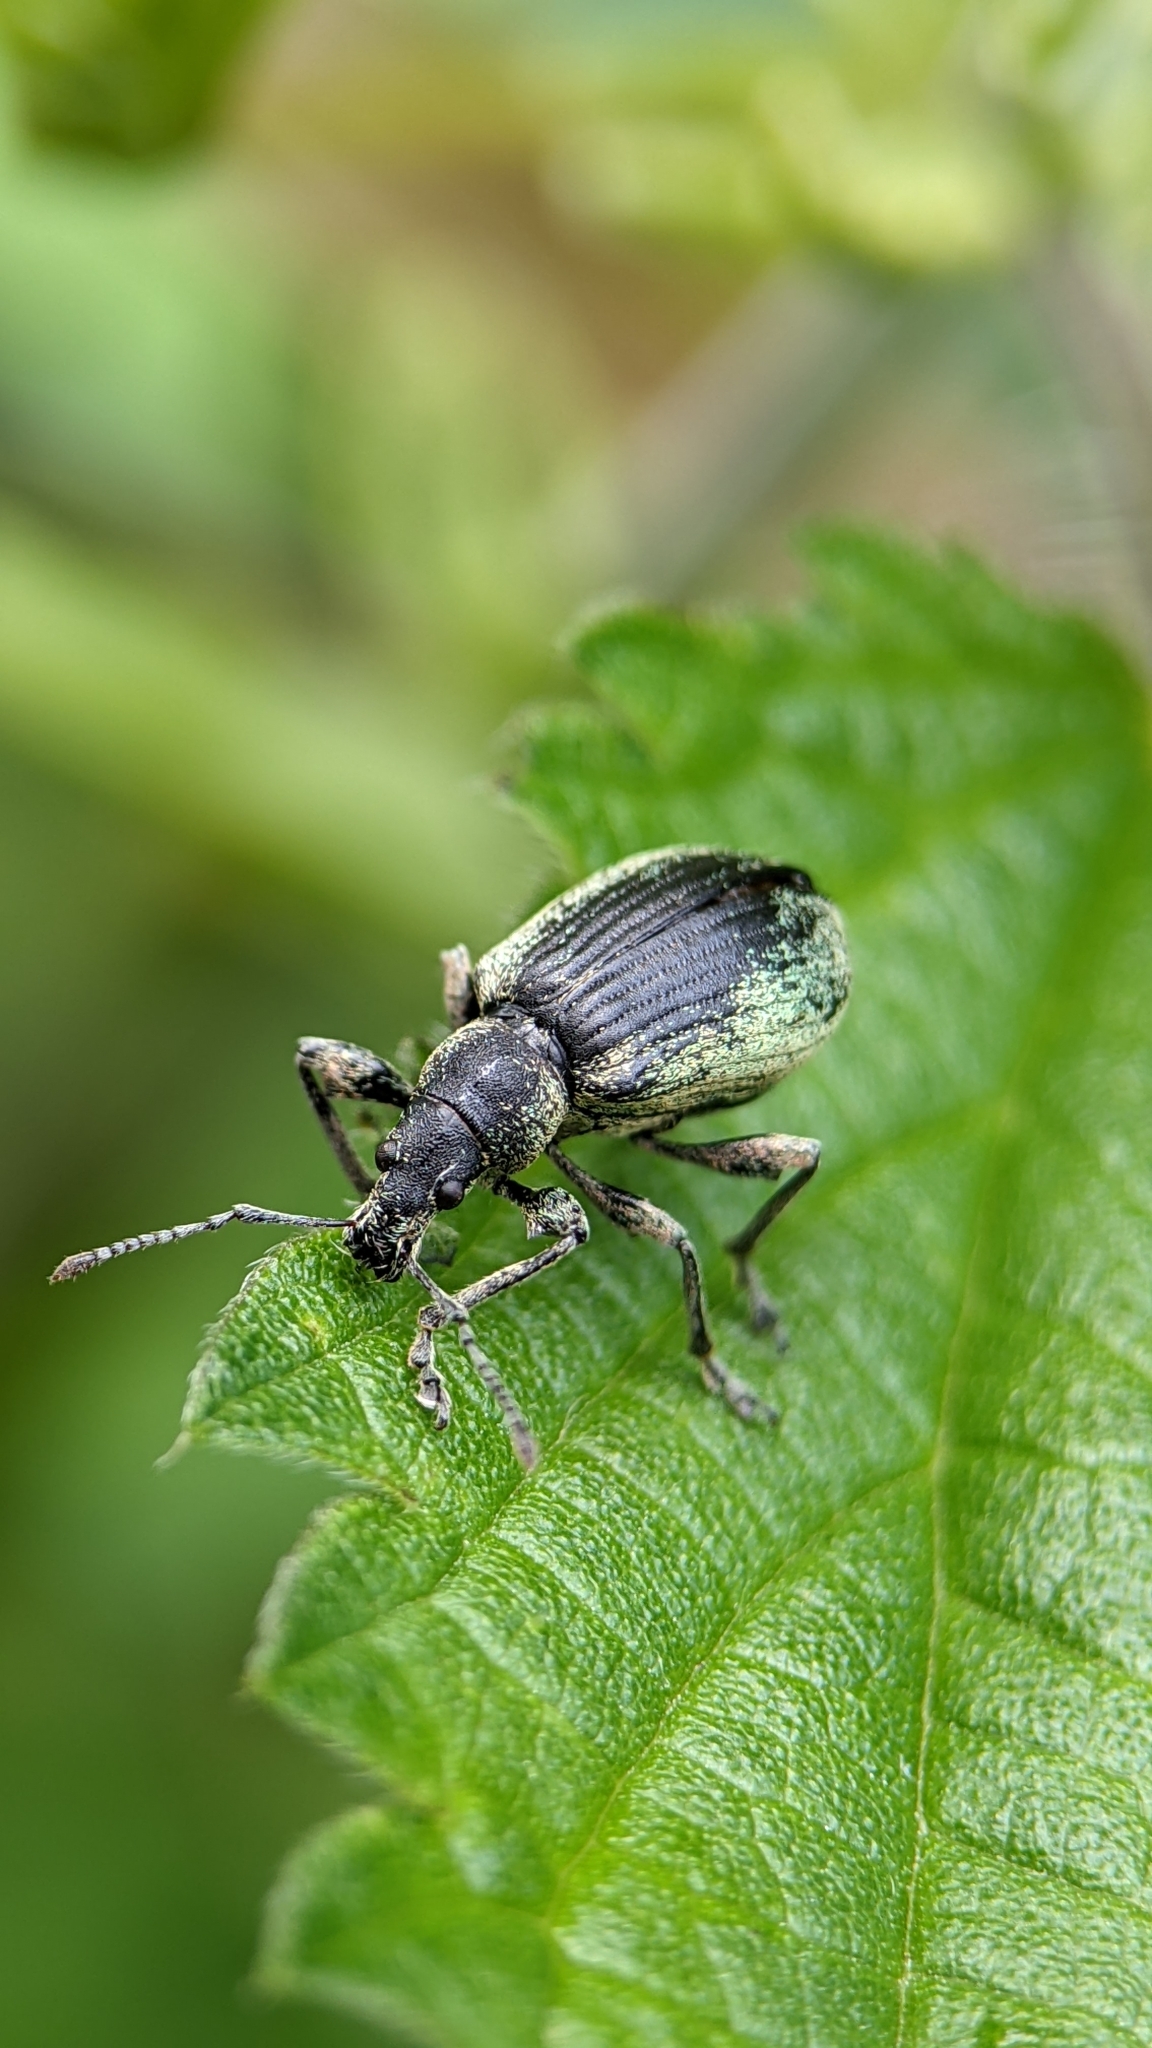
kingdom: Animalia
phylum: Arthropoda
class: Insecta
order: Coleoptera
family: Curculionidae
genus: Phyllobius
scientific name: Phyllobius pomaceus
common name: Green nettle weevil
